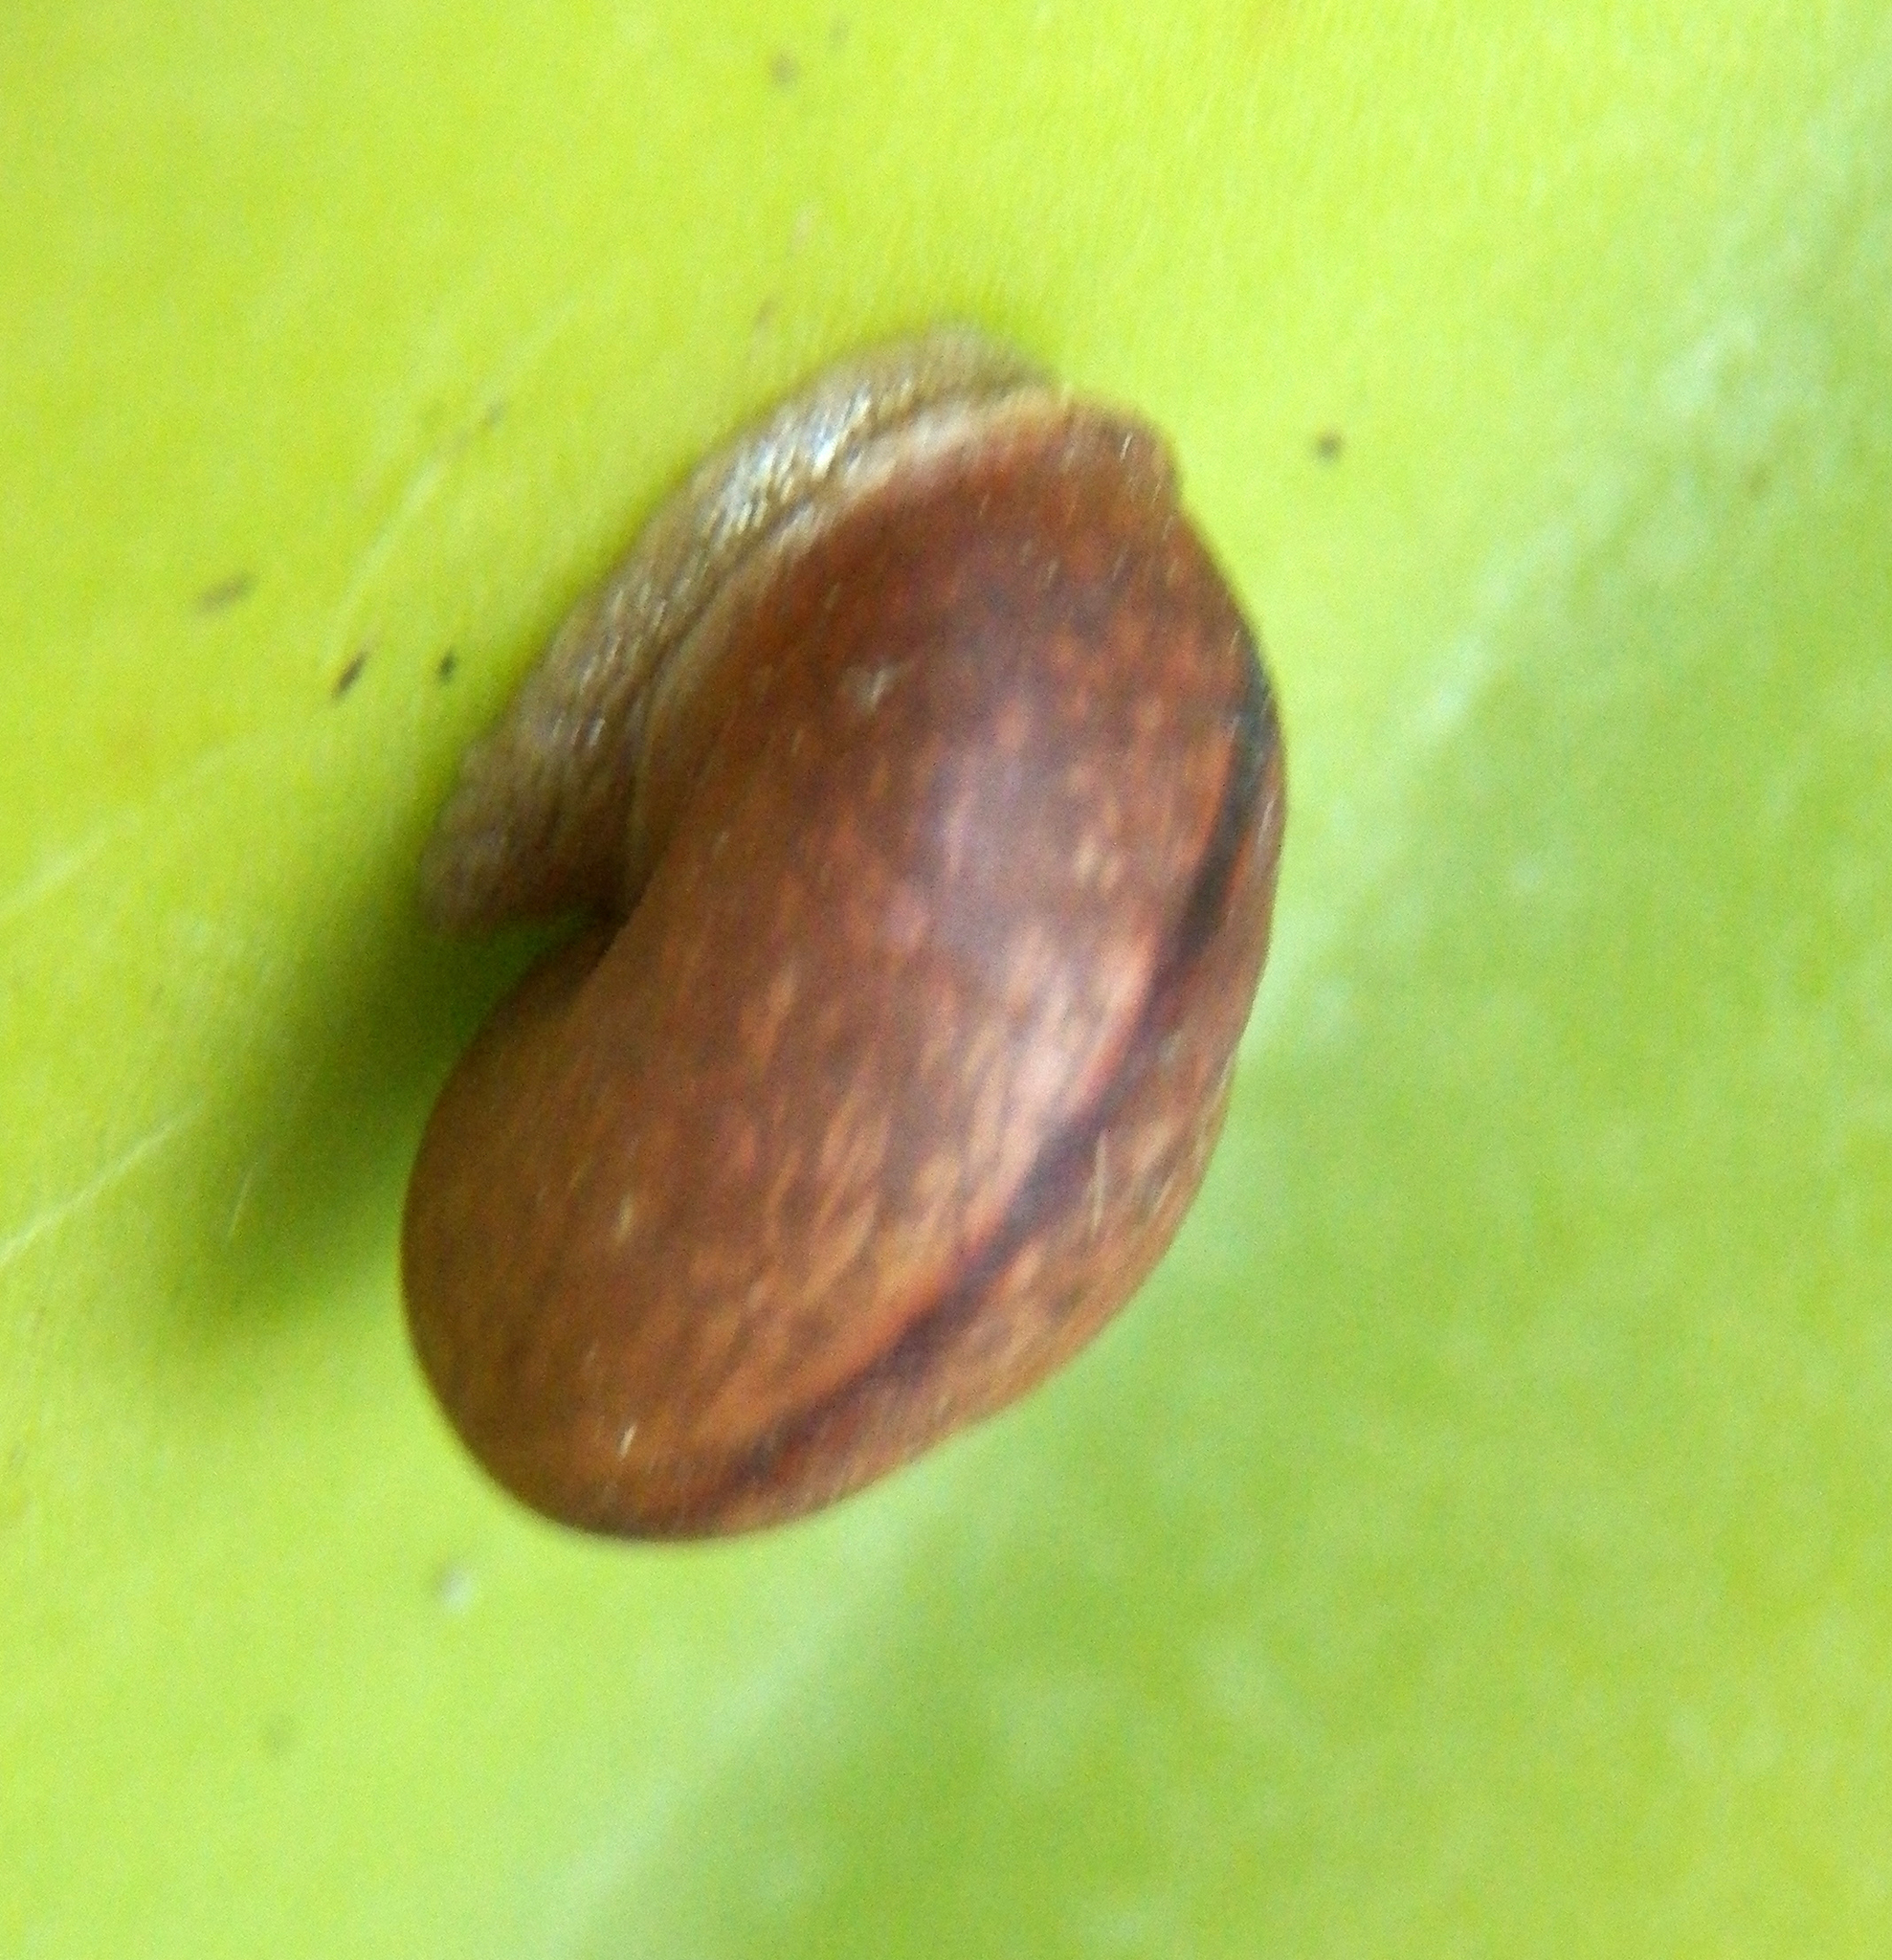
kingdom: Animalia
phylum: Mollusca
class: Gastropoda
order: Stylommatophora
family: Camaenidae
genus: Bradybaena
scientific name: Bradybaena similaris
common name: Asian trampsnail
